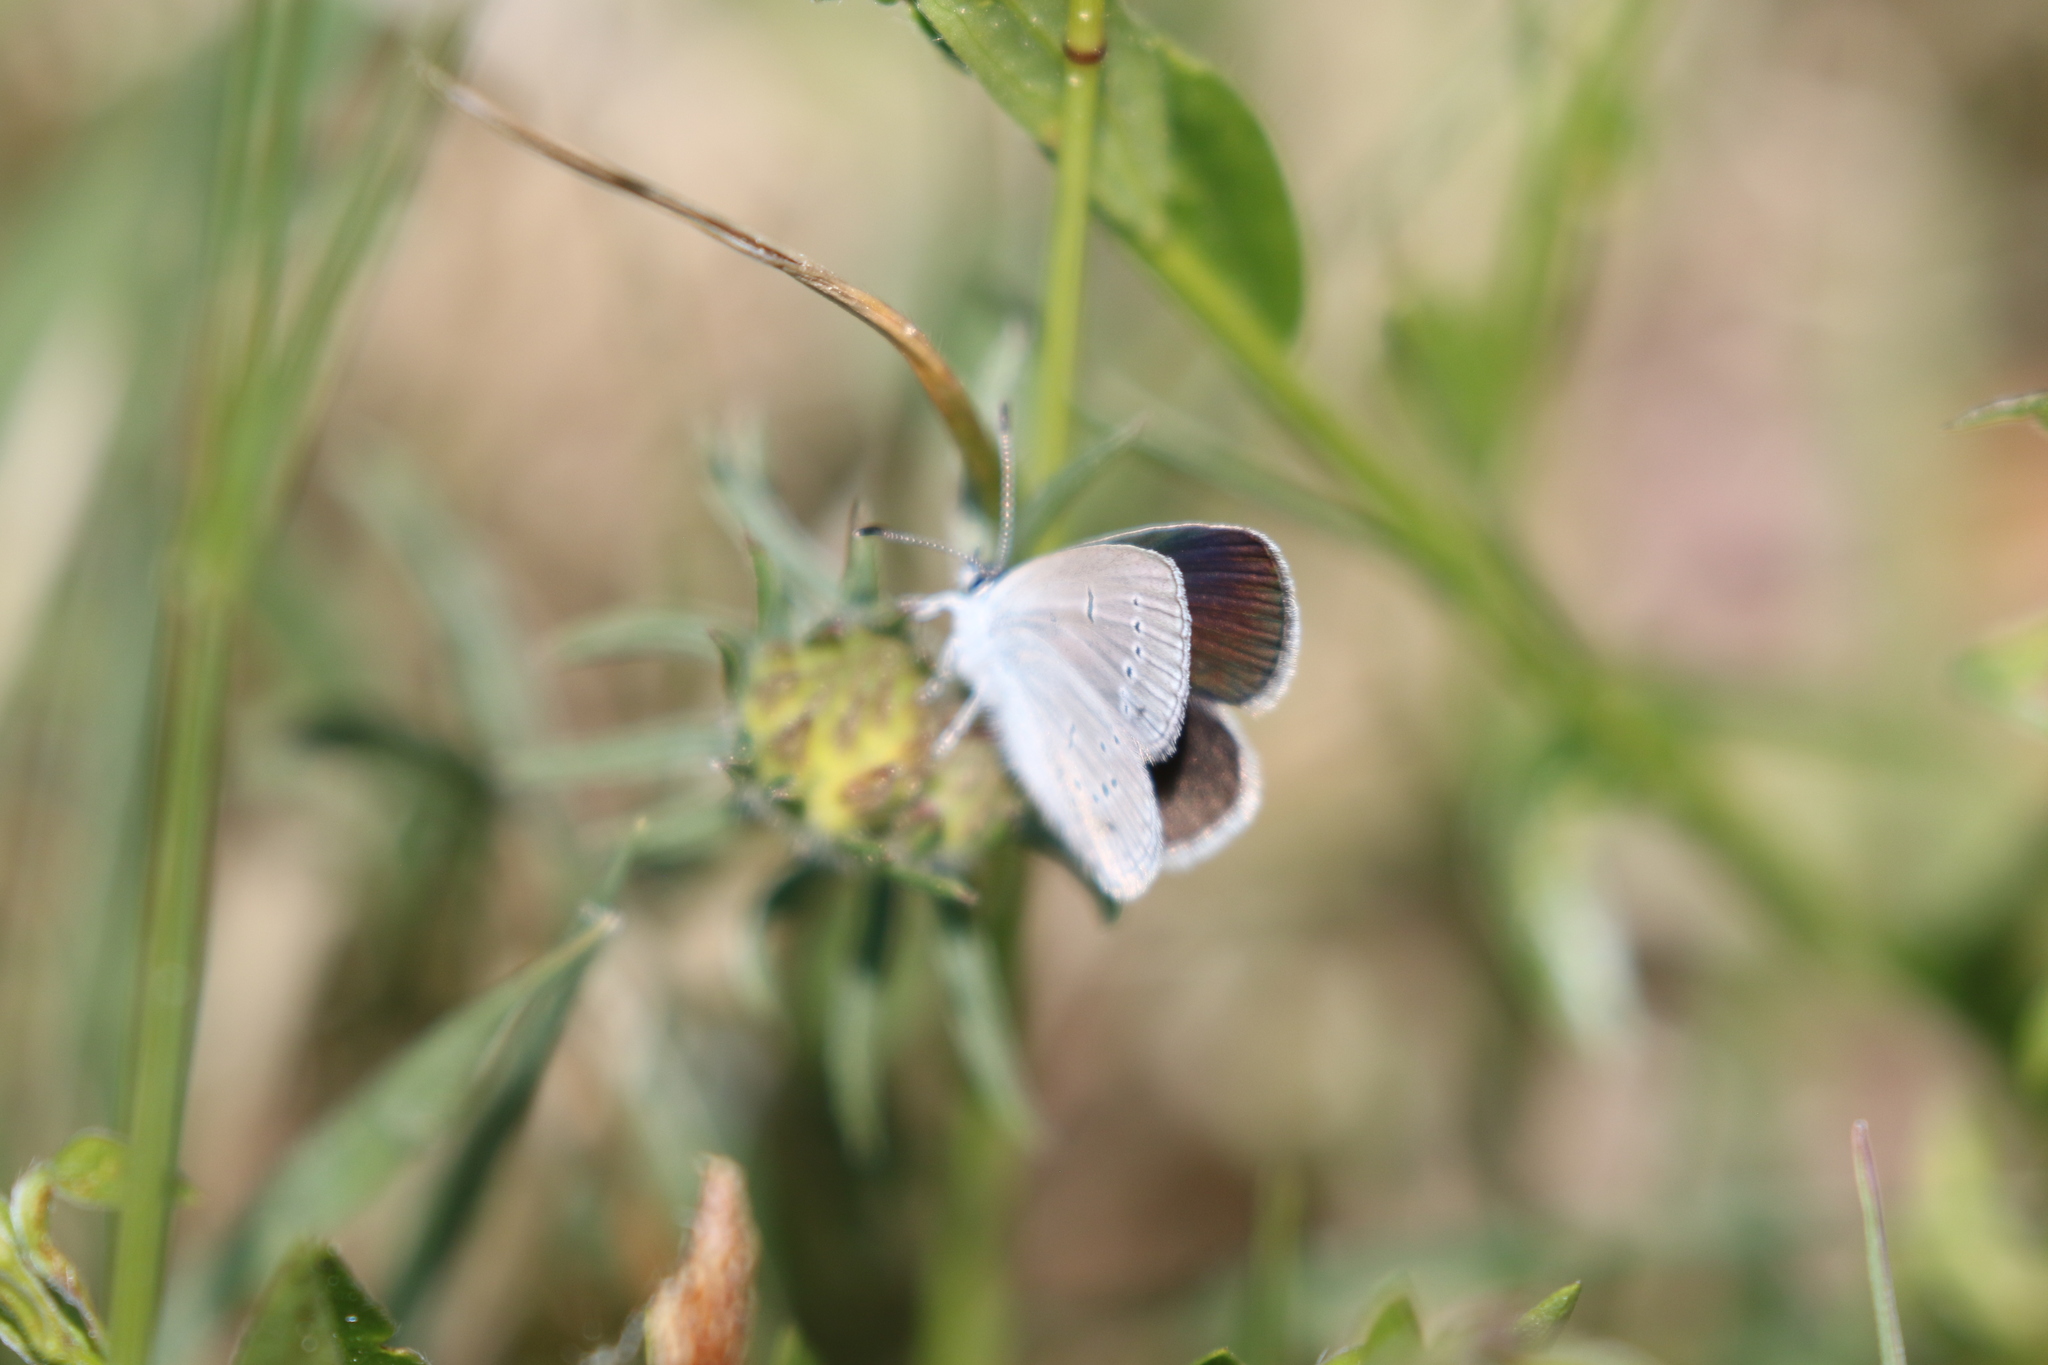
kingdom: Animalia
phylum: Arthropoda
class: Insecta
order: Lepidoptera
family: Lycaenidae
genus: Cupido
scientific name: Cupido minimus
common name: Small blue
